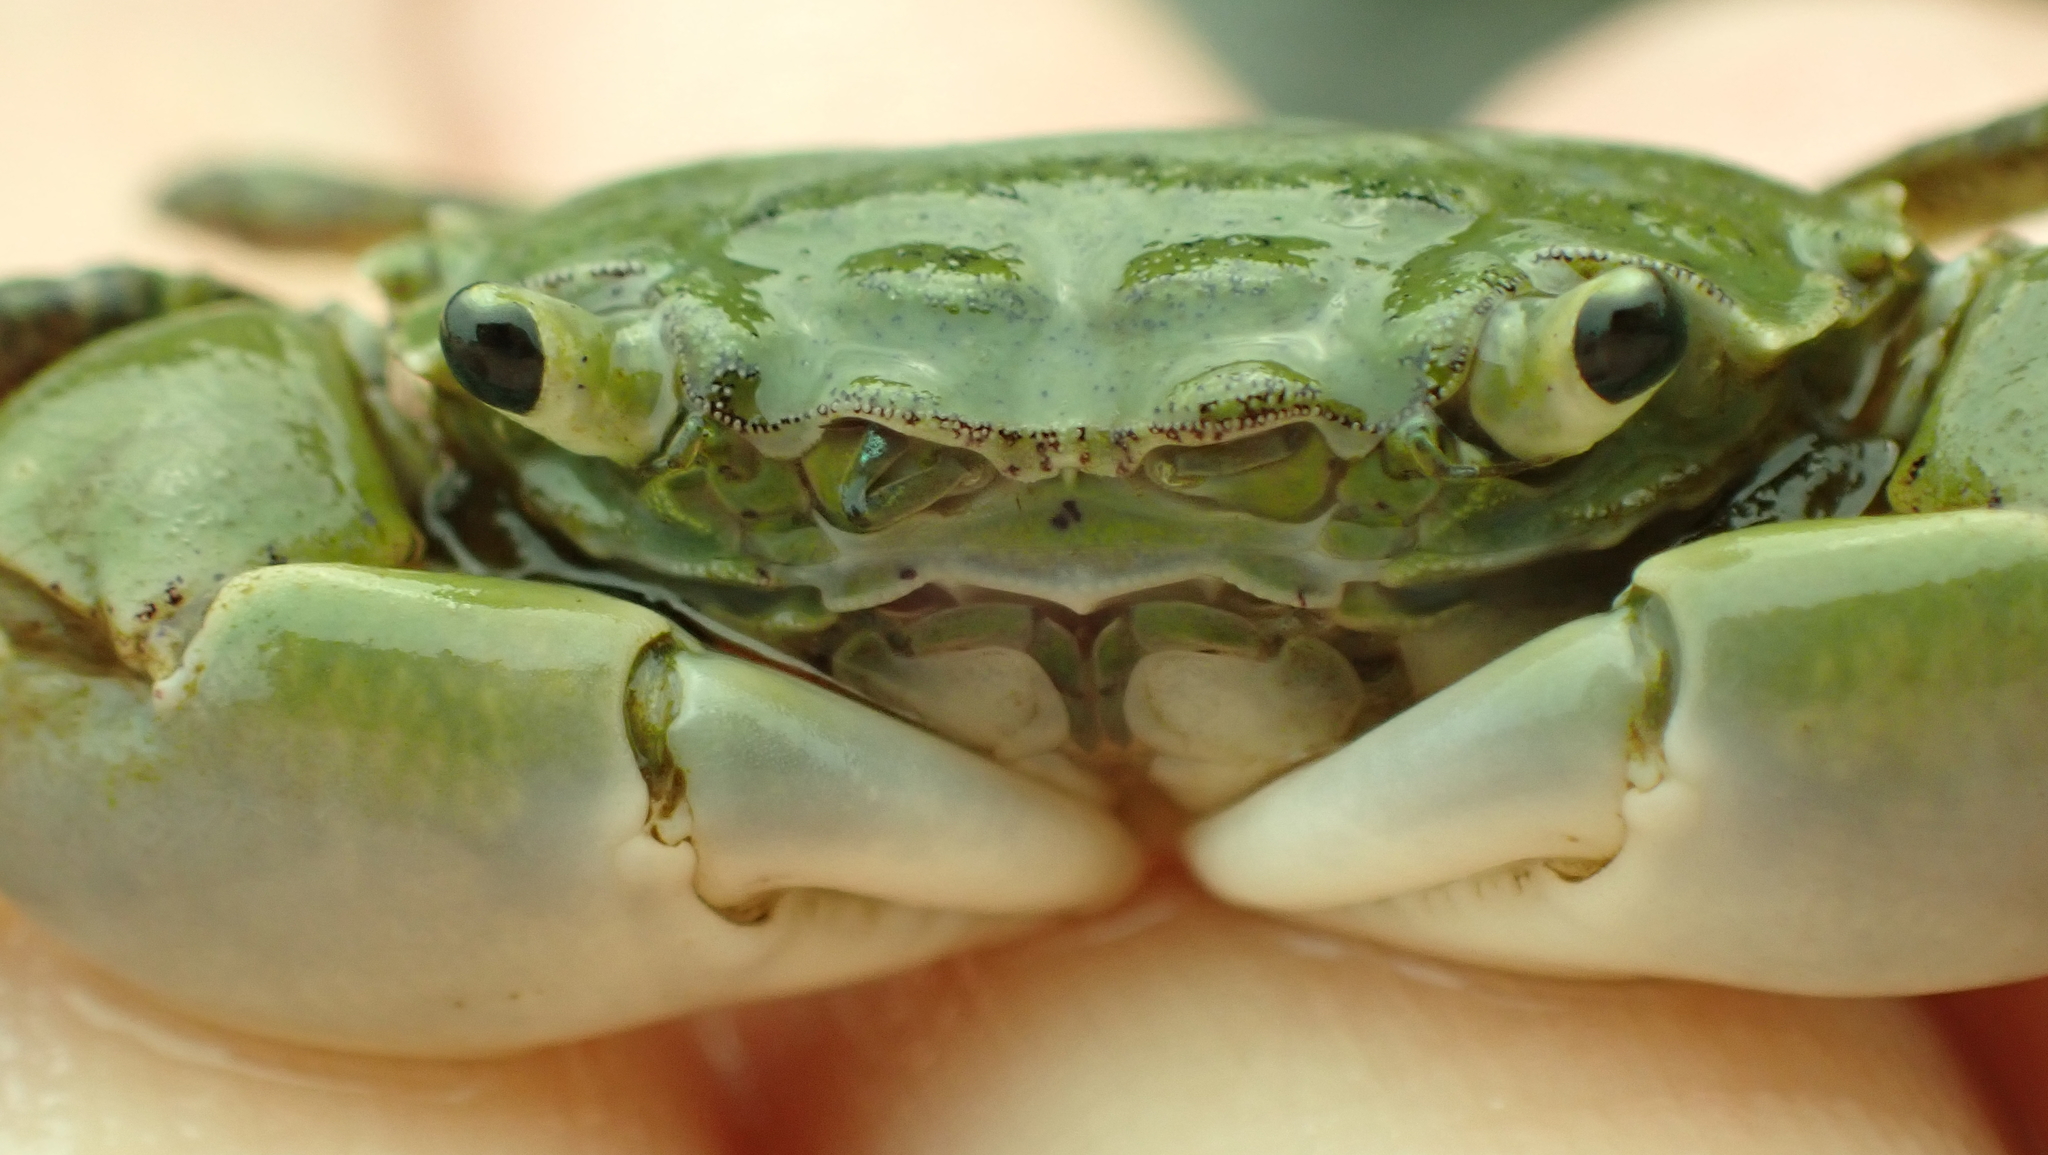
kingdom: Animalia
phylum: Arthropoda
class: Malacostraca
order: Decapoda
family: Varunidae
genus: Hemigrapsus
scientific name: Hemigrapsus oregonensis
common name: Yellow shore crab
